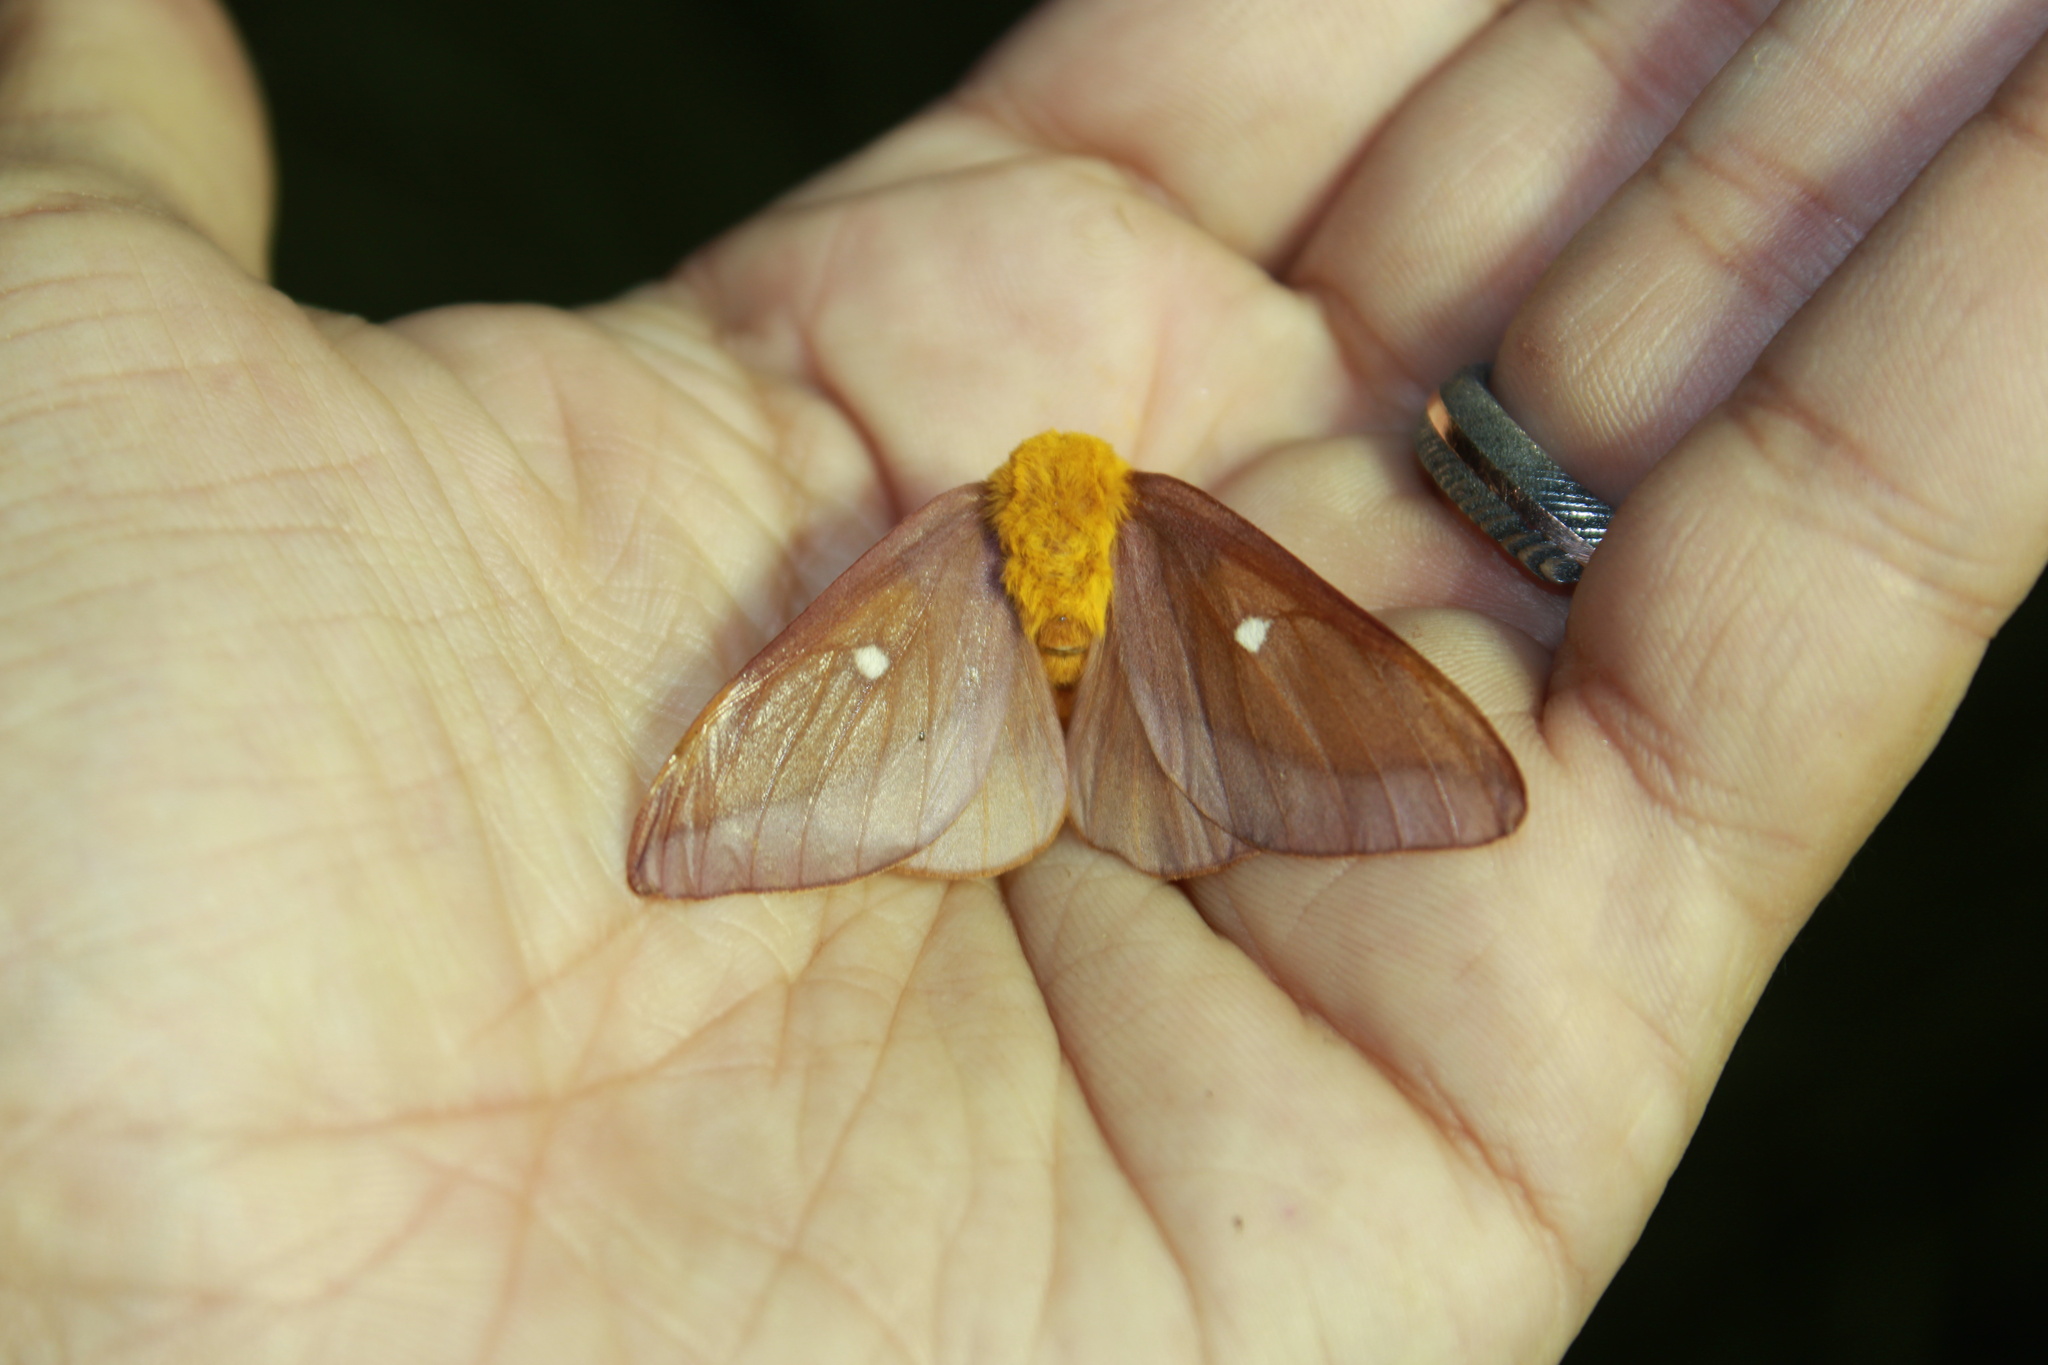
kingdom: Animalia
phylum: Arthropoda
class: Insecta
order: Lepidoptera
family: Saturniidae
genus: Anisota
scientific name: Anisota virginiensis
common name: Pink striped oakworm moth
